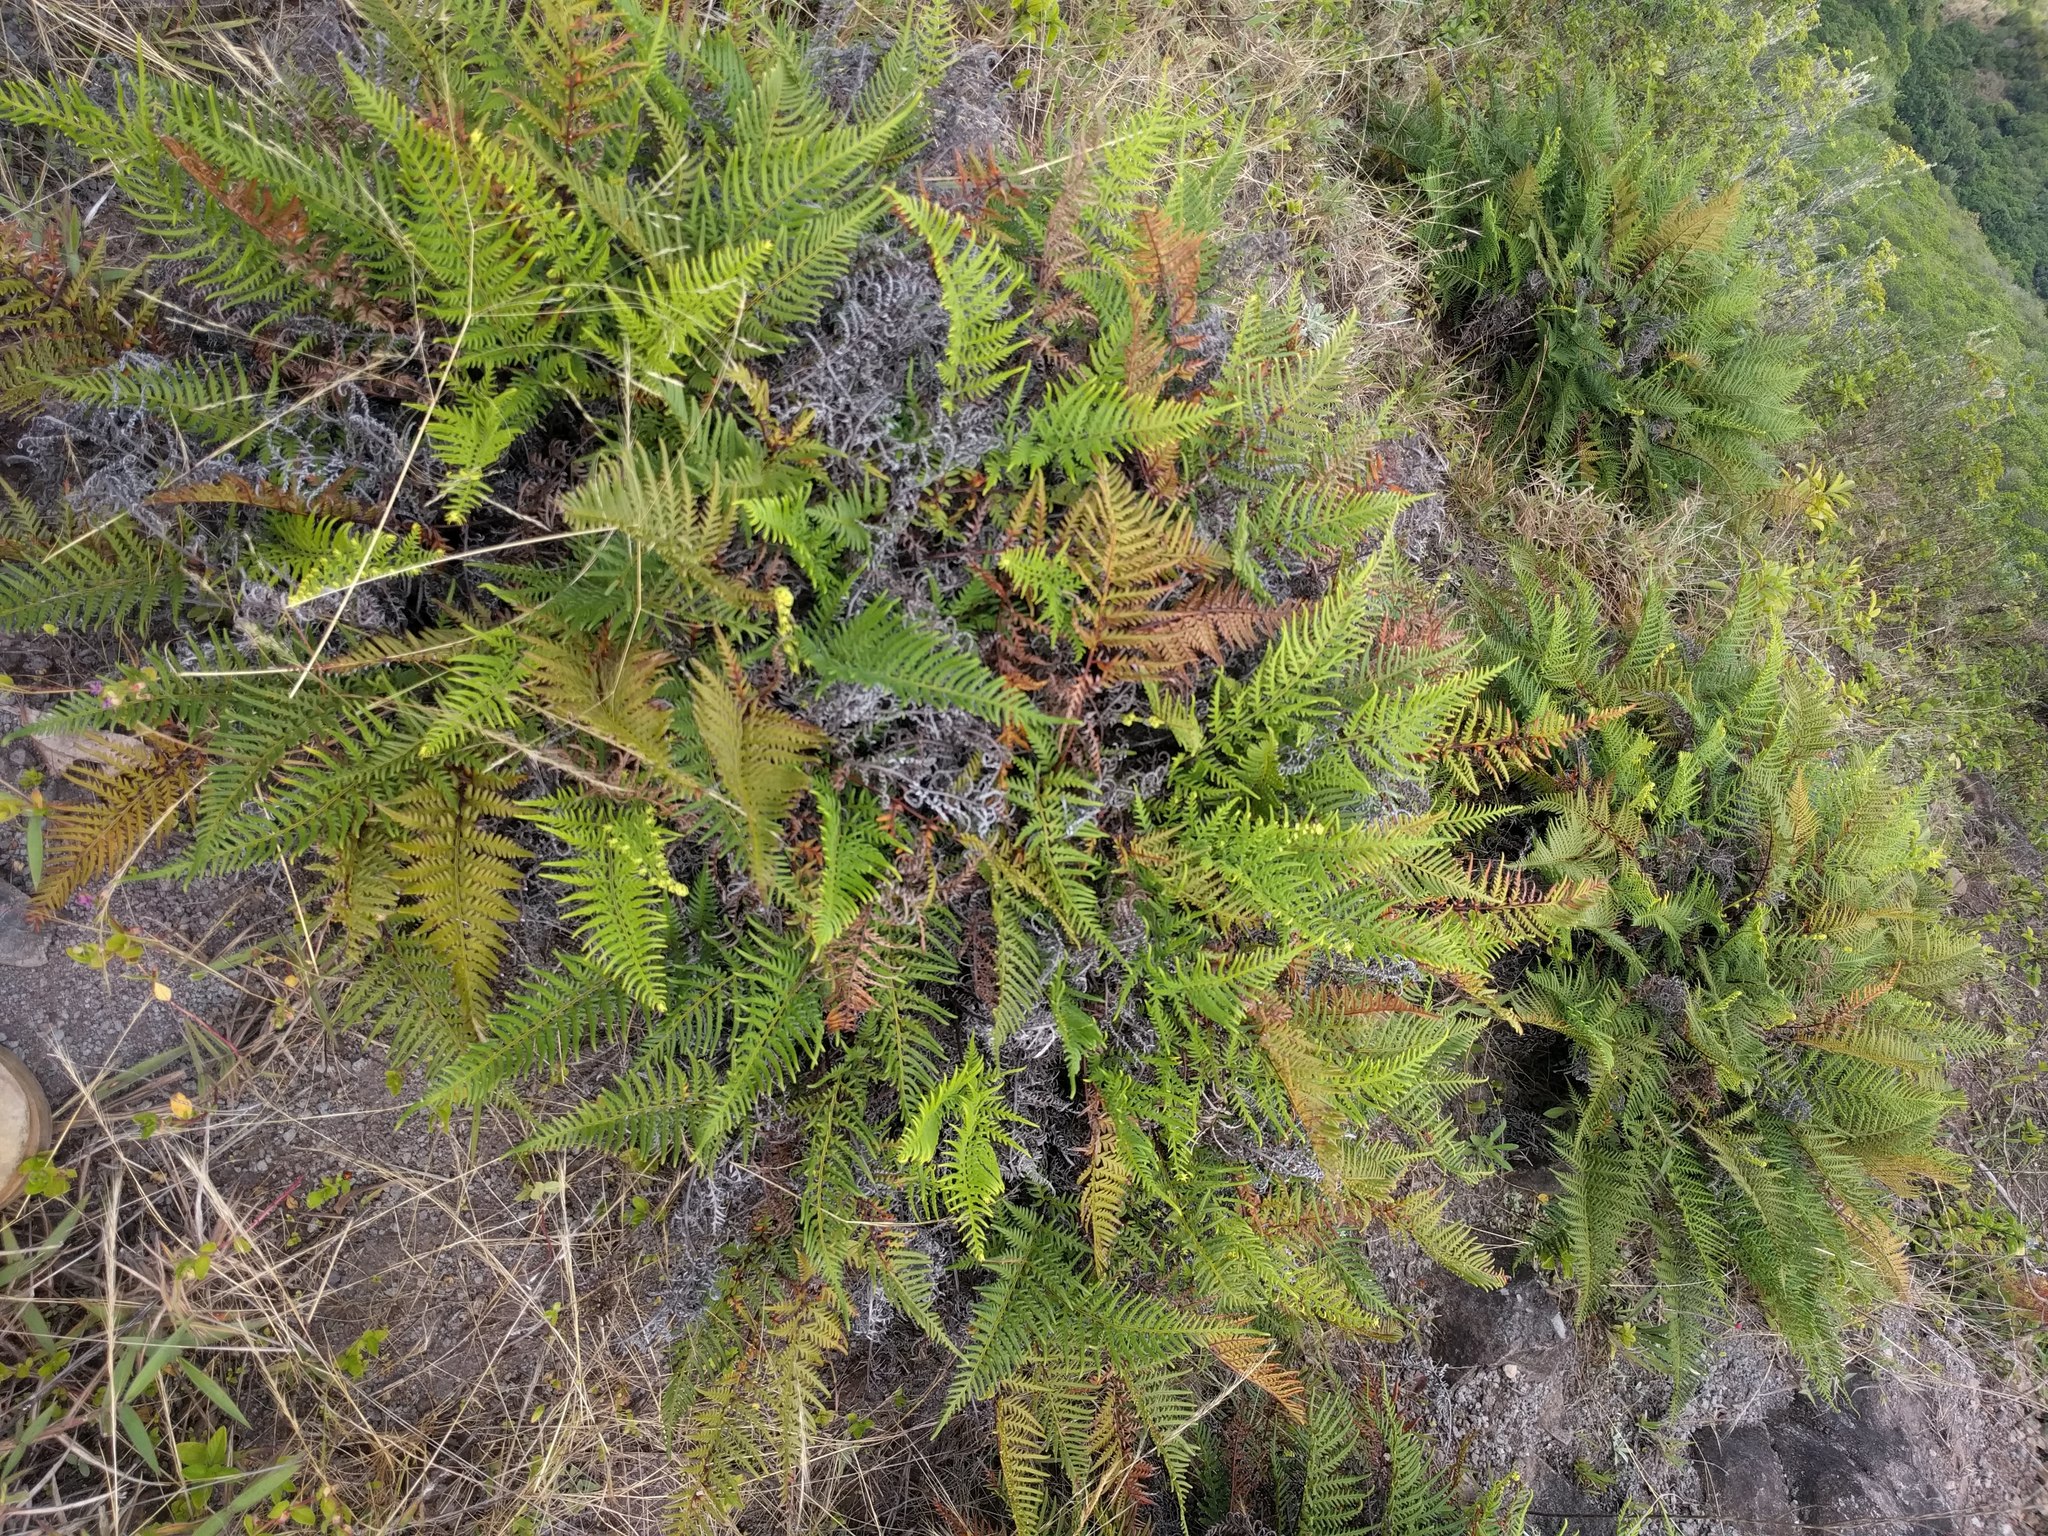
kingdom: Plantae
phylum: Tracheophyta
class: Polypodiopsida
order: Polypodiales
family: Pteridaceae
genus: Pityrogramma
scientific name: Pityrogramma austroamericana
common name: Leatherleaf goldback fern
